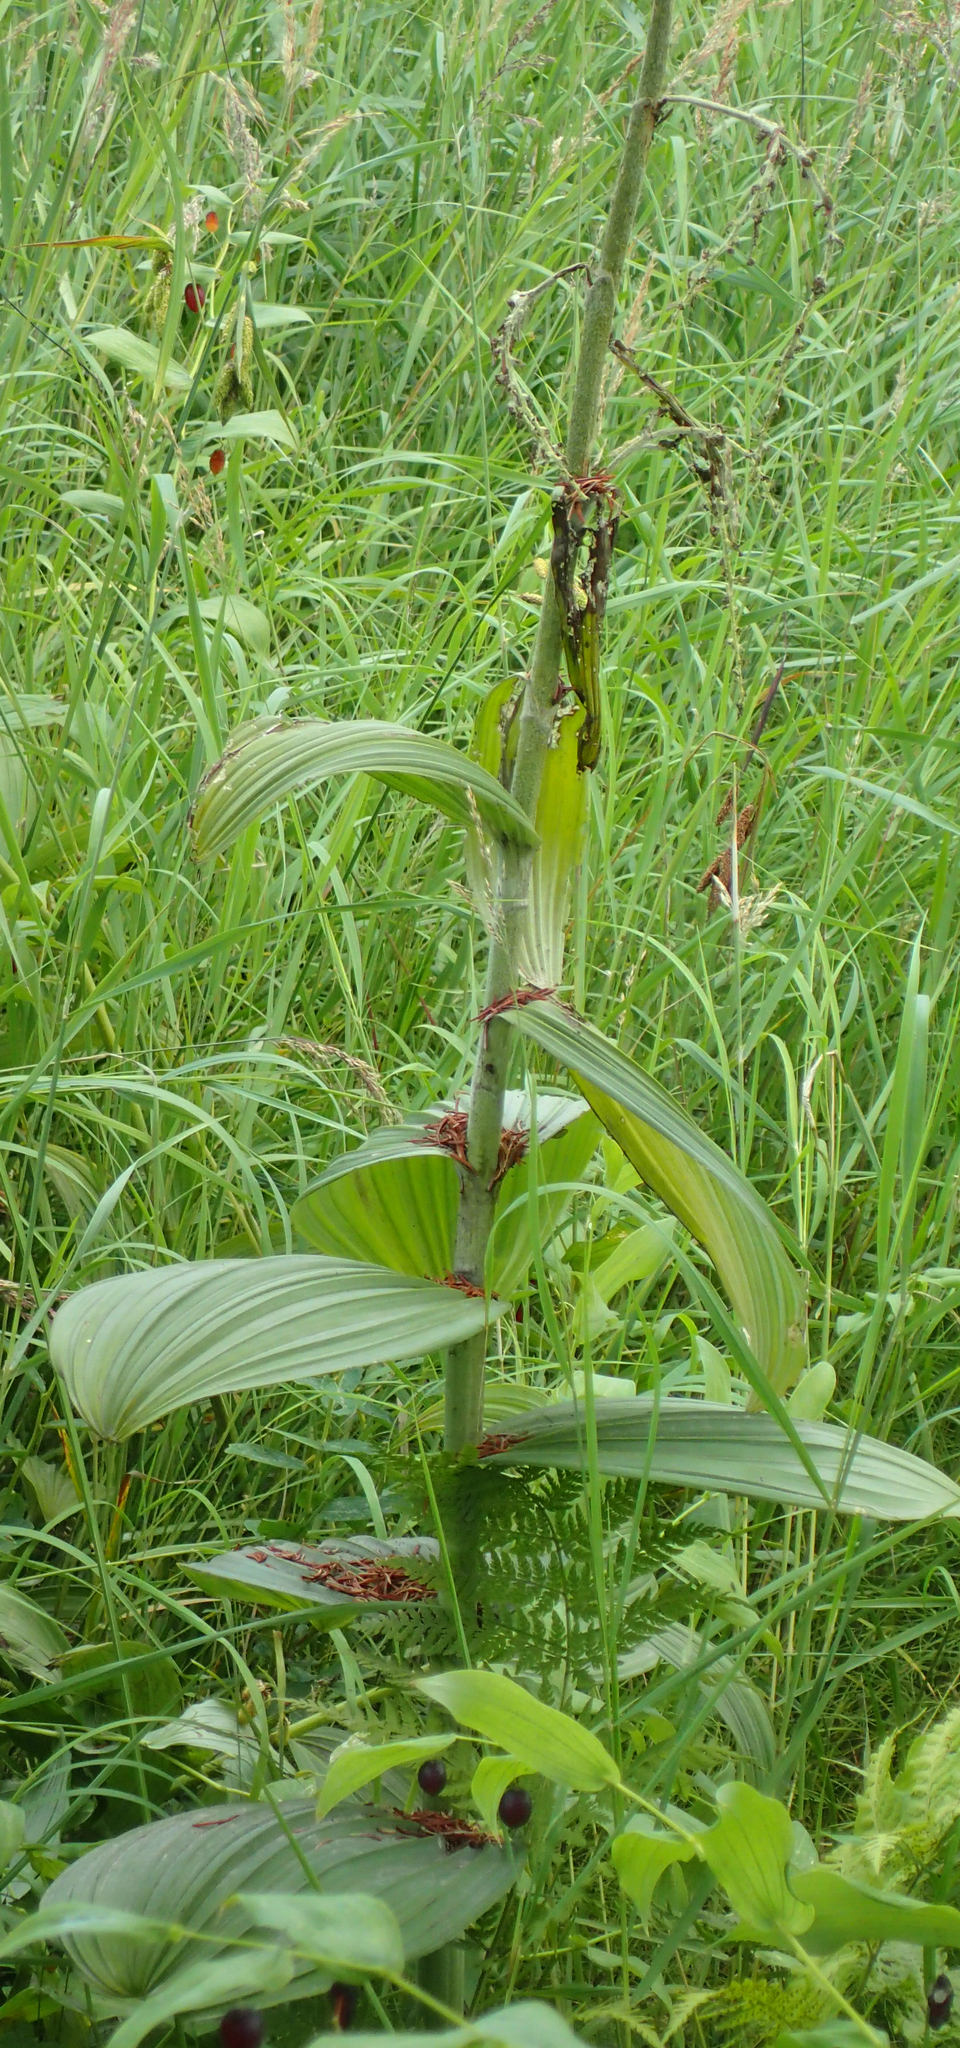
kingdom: Plantae
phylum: Tracheophyta
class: Liliopsida
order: Liliales
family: Melanthiaceae
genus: Veratrum
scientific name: Veratrum viride
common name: American false hellebore
